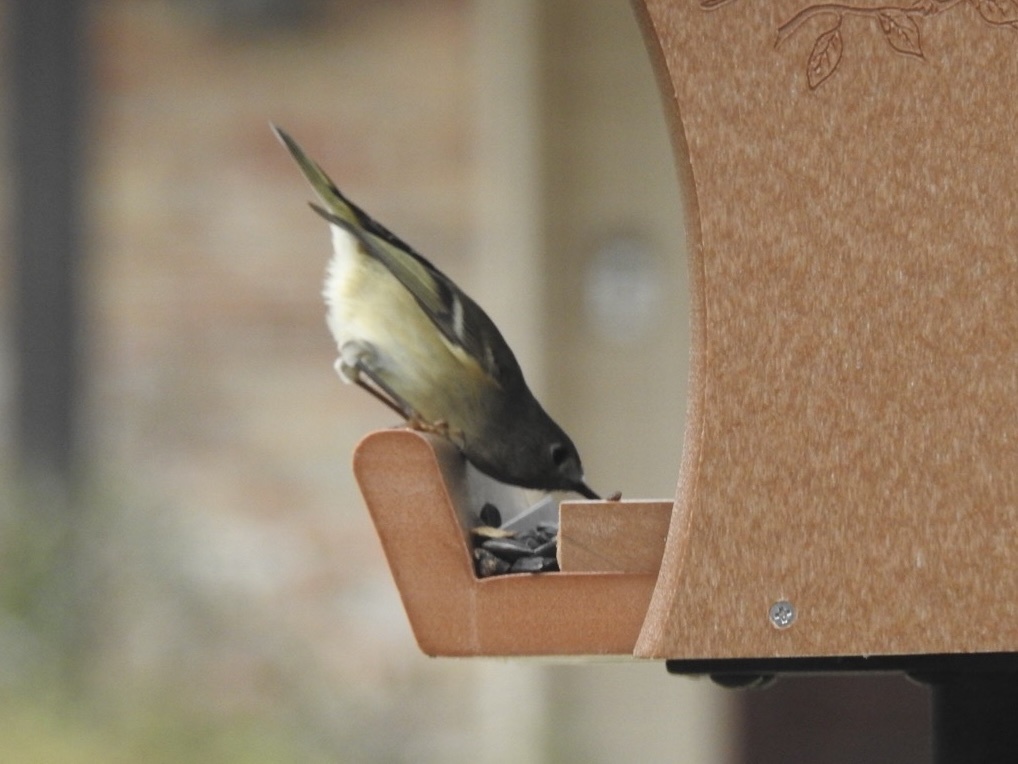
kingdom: Animalia
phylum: Chordata
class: Aves
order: Passeriformes
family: Regulidae
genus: Regulus
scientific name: Regulus calendula
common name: Ruby-crowned kinglet
